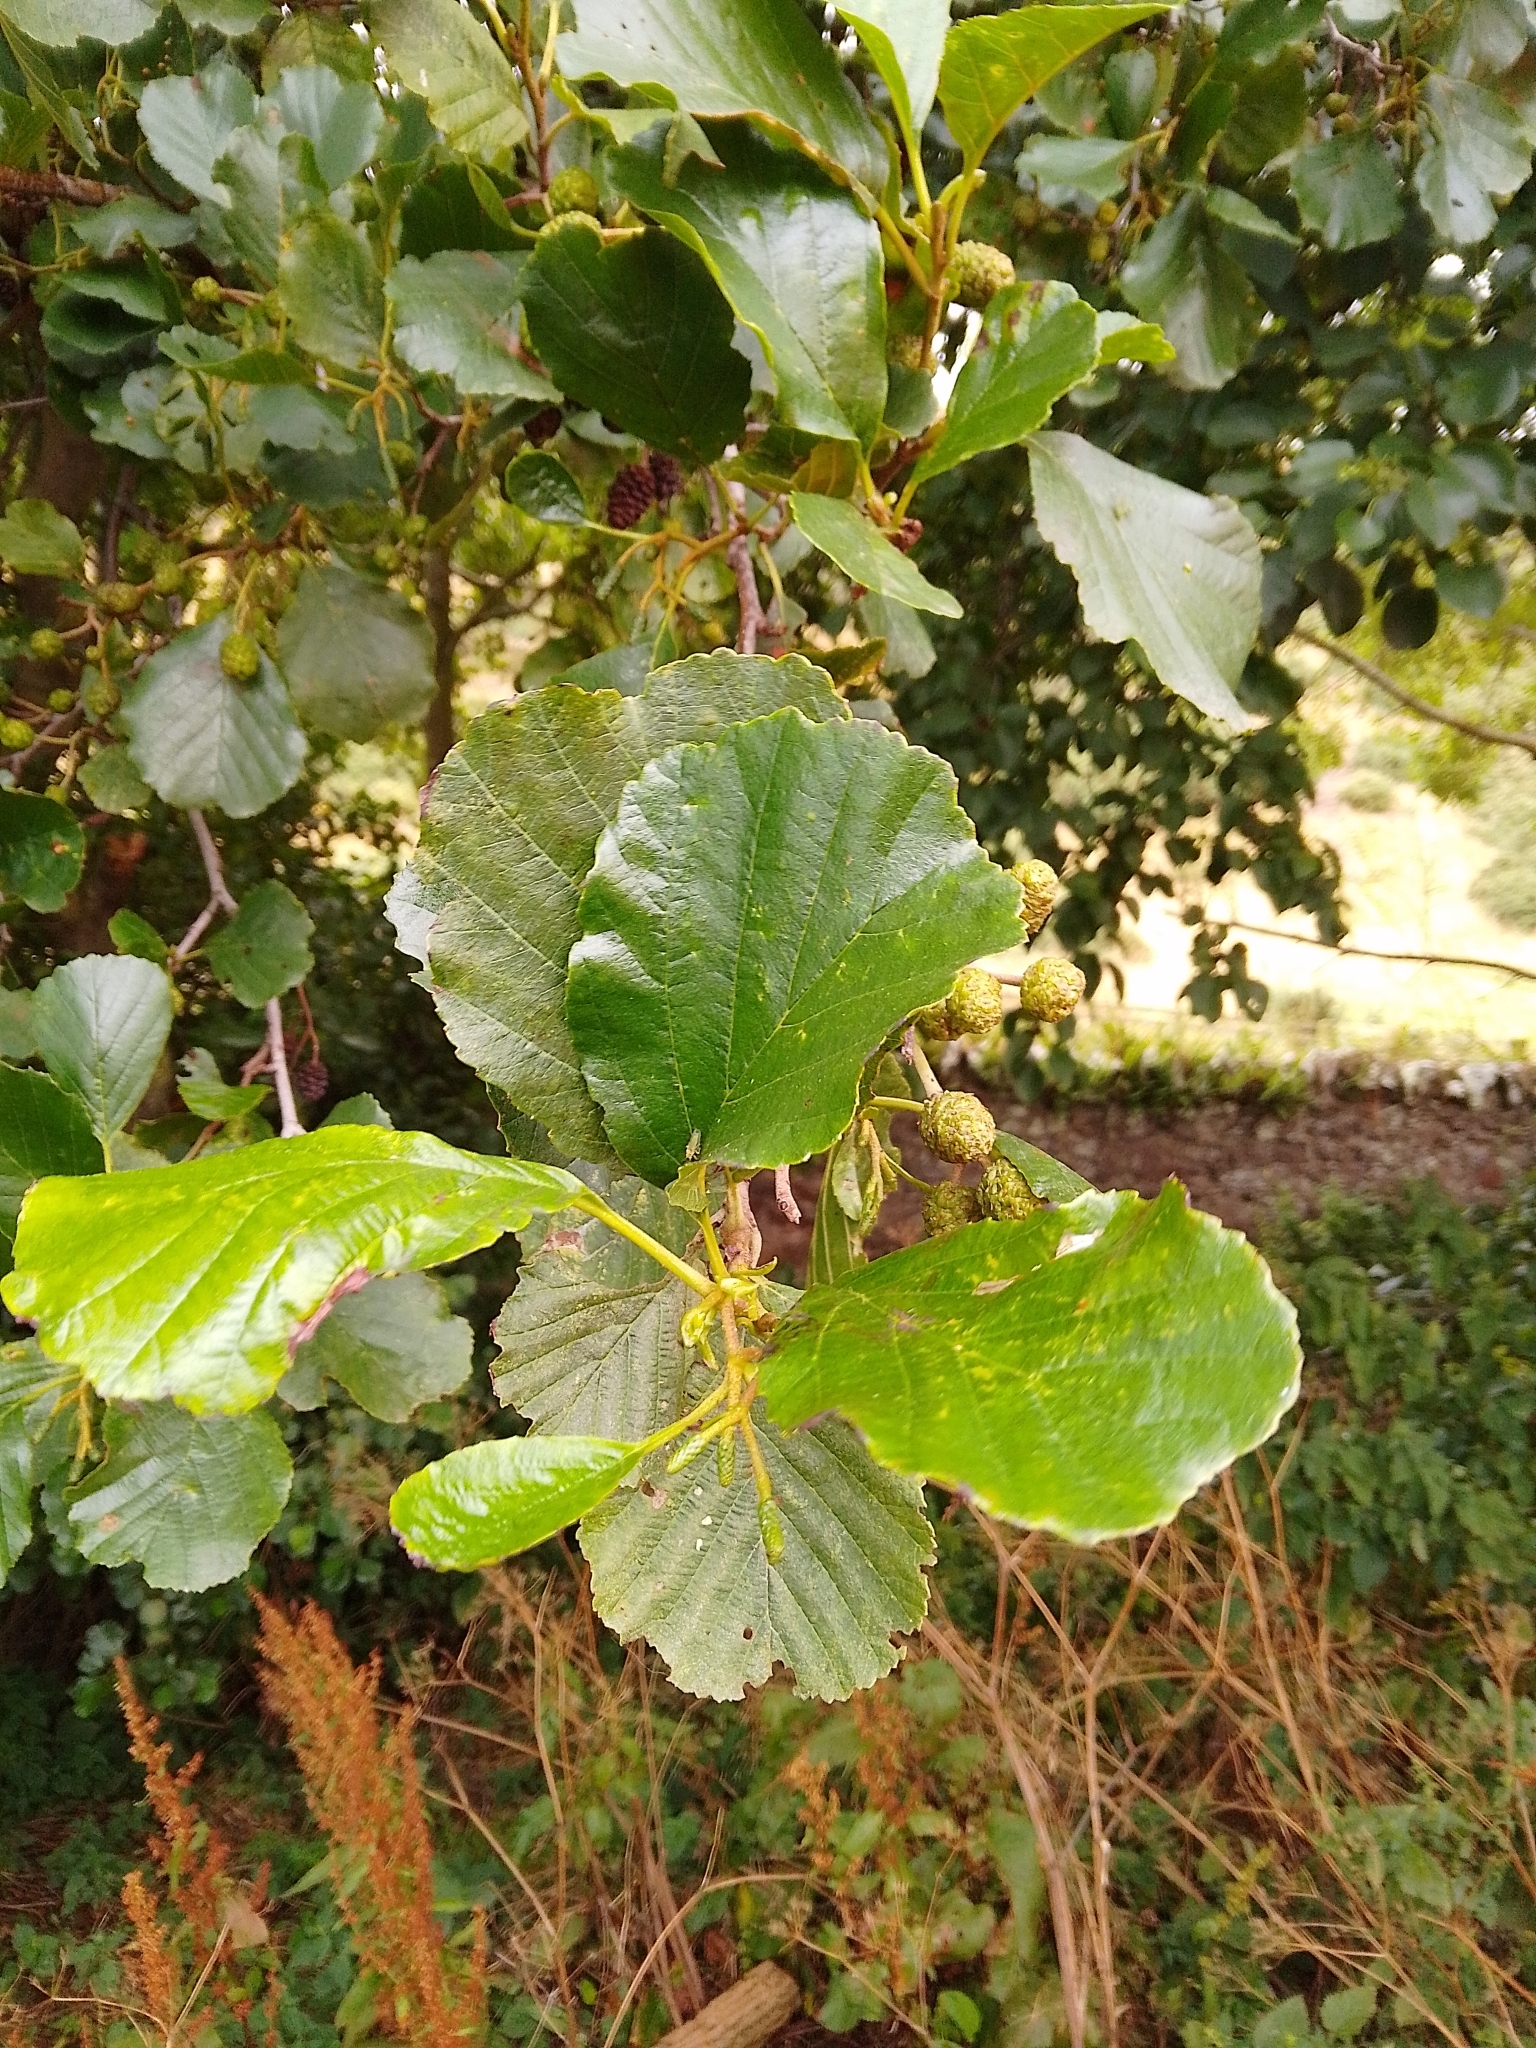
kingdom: Plantae
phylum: Tracheophyta
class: Magnoliopsida
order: Fagales
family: Betulaceae
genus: Alnus
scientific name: Alnus glutinosa
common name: Black alder
